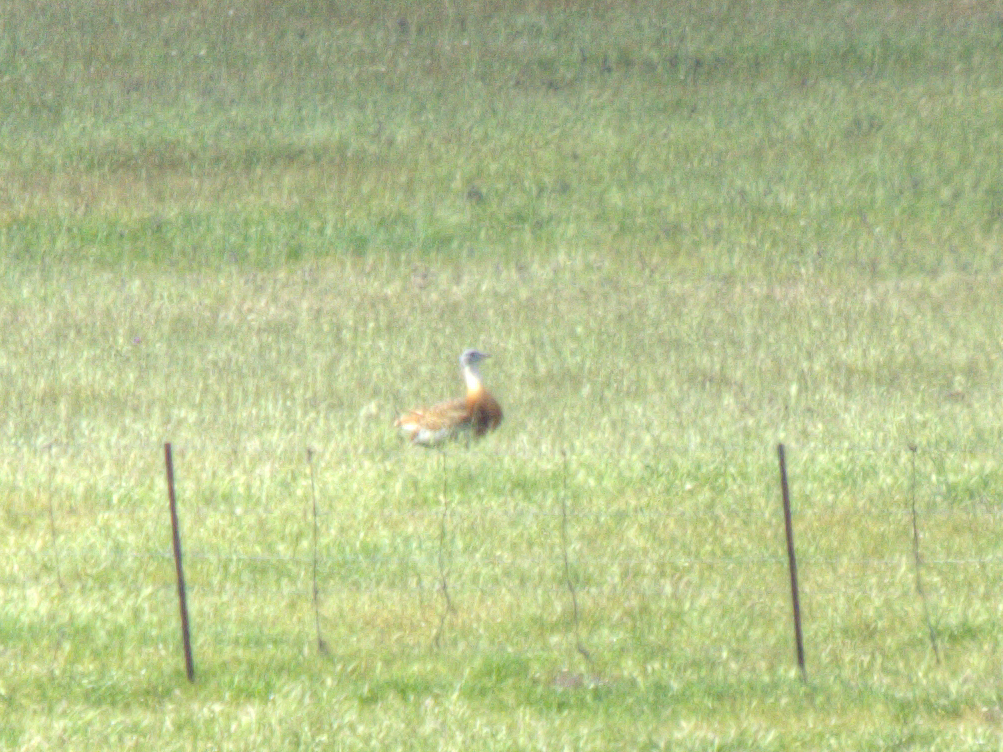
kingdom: Animalia
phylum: Chordata
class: Aves
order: Otidiformes
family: Otididae
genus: Otis
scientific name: Otis tarda
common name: Great bustard
